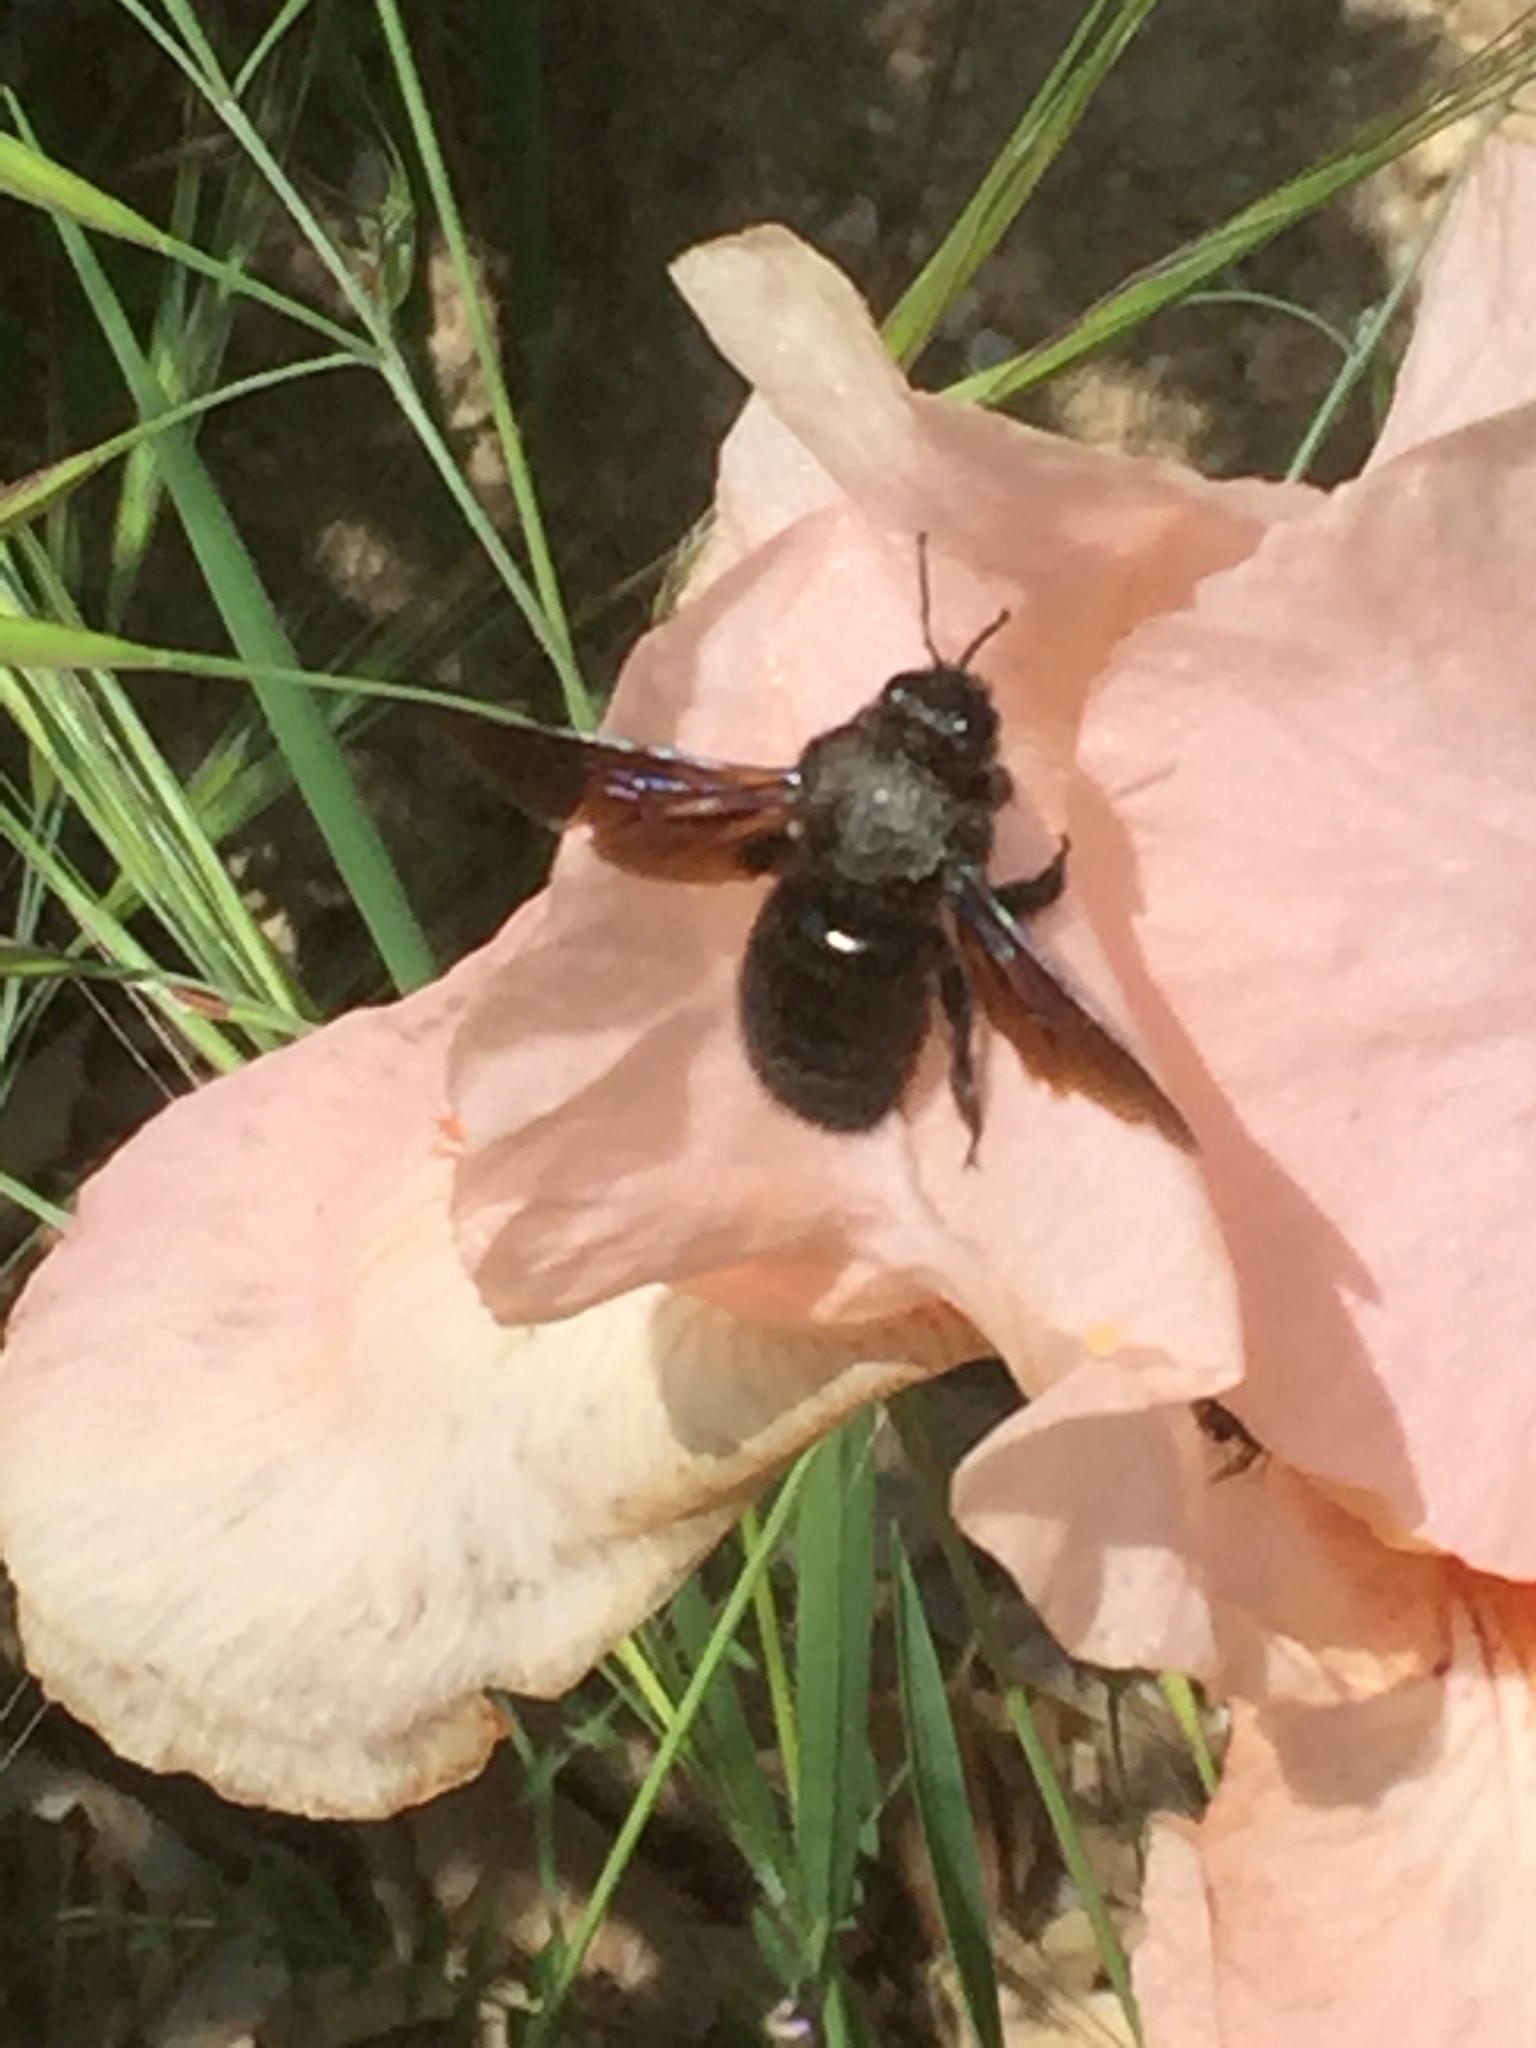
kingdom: Animalia
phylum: Arthropoda
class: Insecta
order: Hymenoptera
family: Apidae
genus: Xylocopa
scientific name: Xylocopa violacea
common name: Violet carpenter bee
